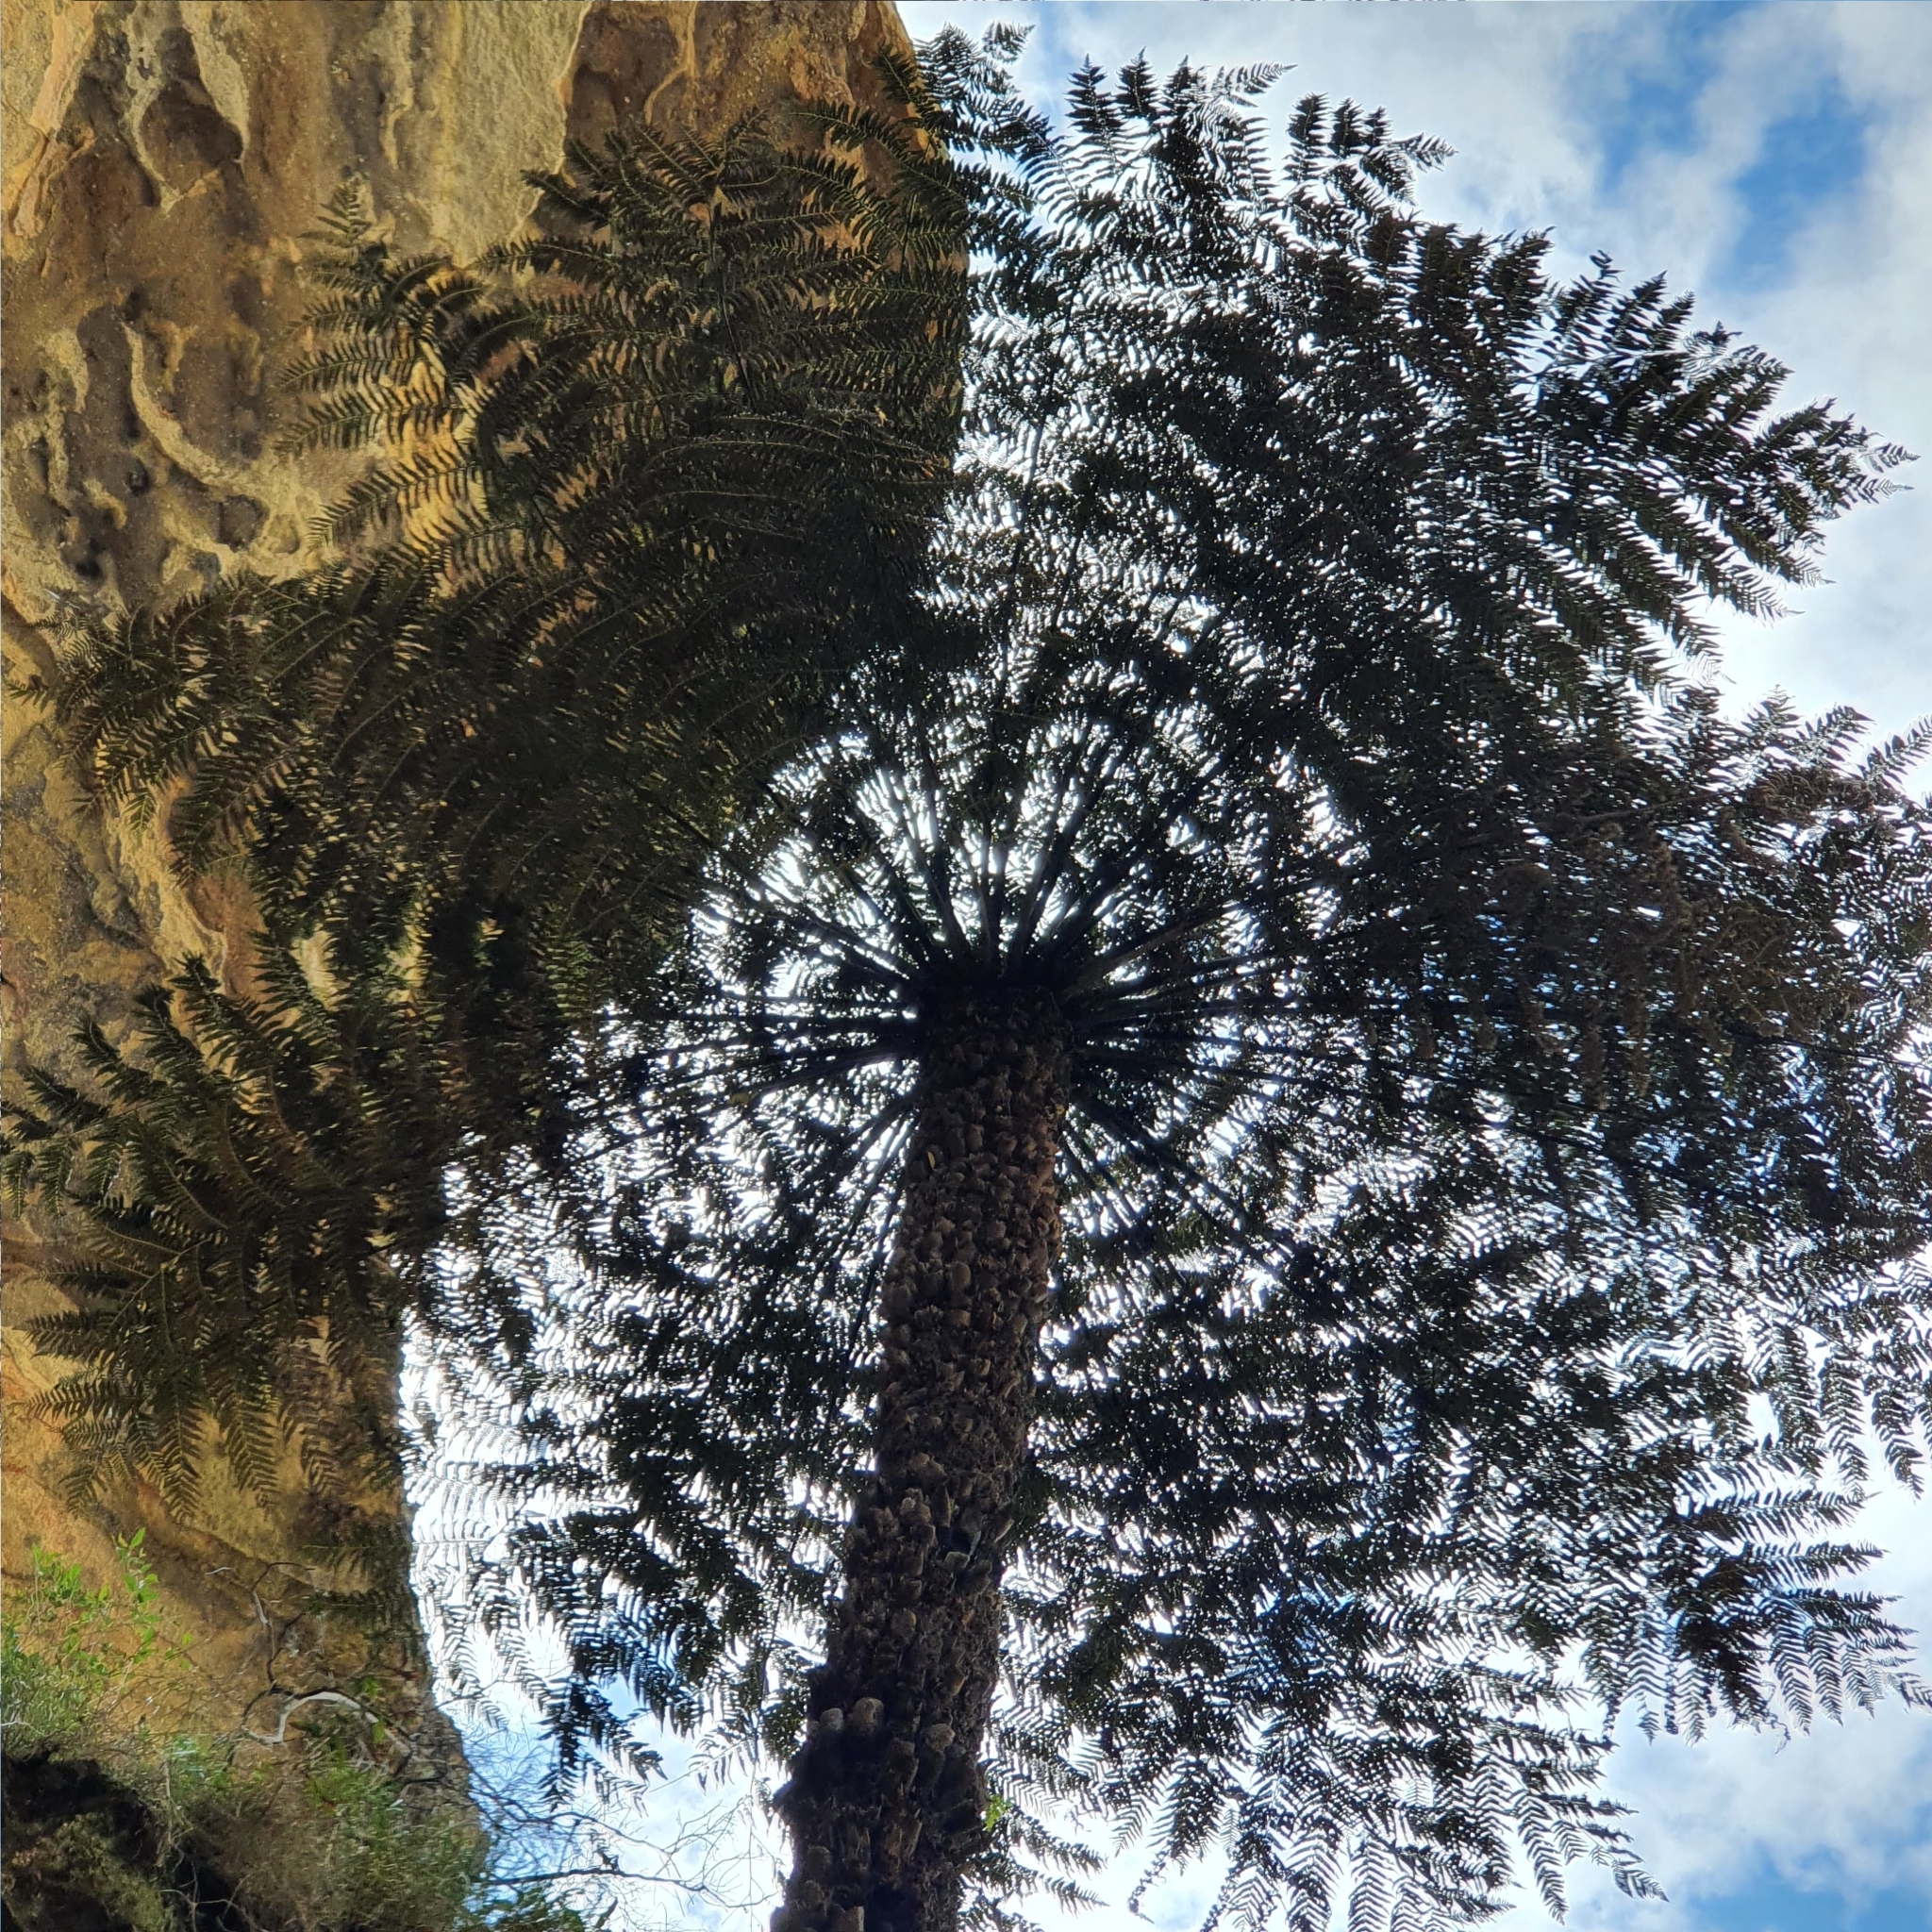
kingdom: Plantae
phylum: Tracheophyta
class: Polypodiopsida
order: Cyatheales
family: Cyatheaceae
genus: Alsophila
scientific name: Alsophila australis
